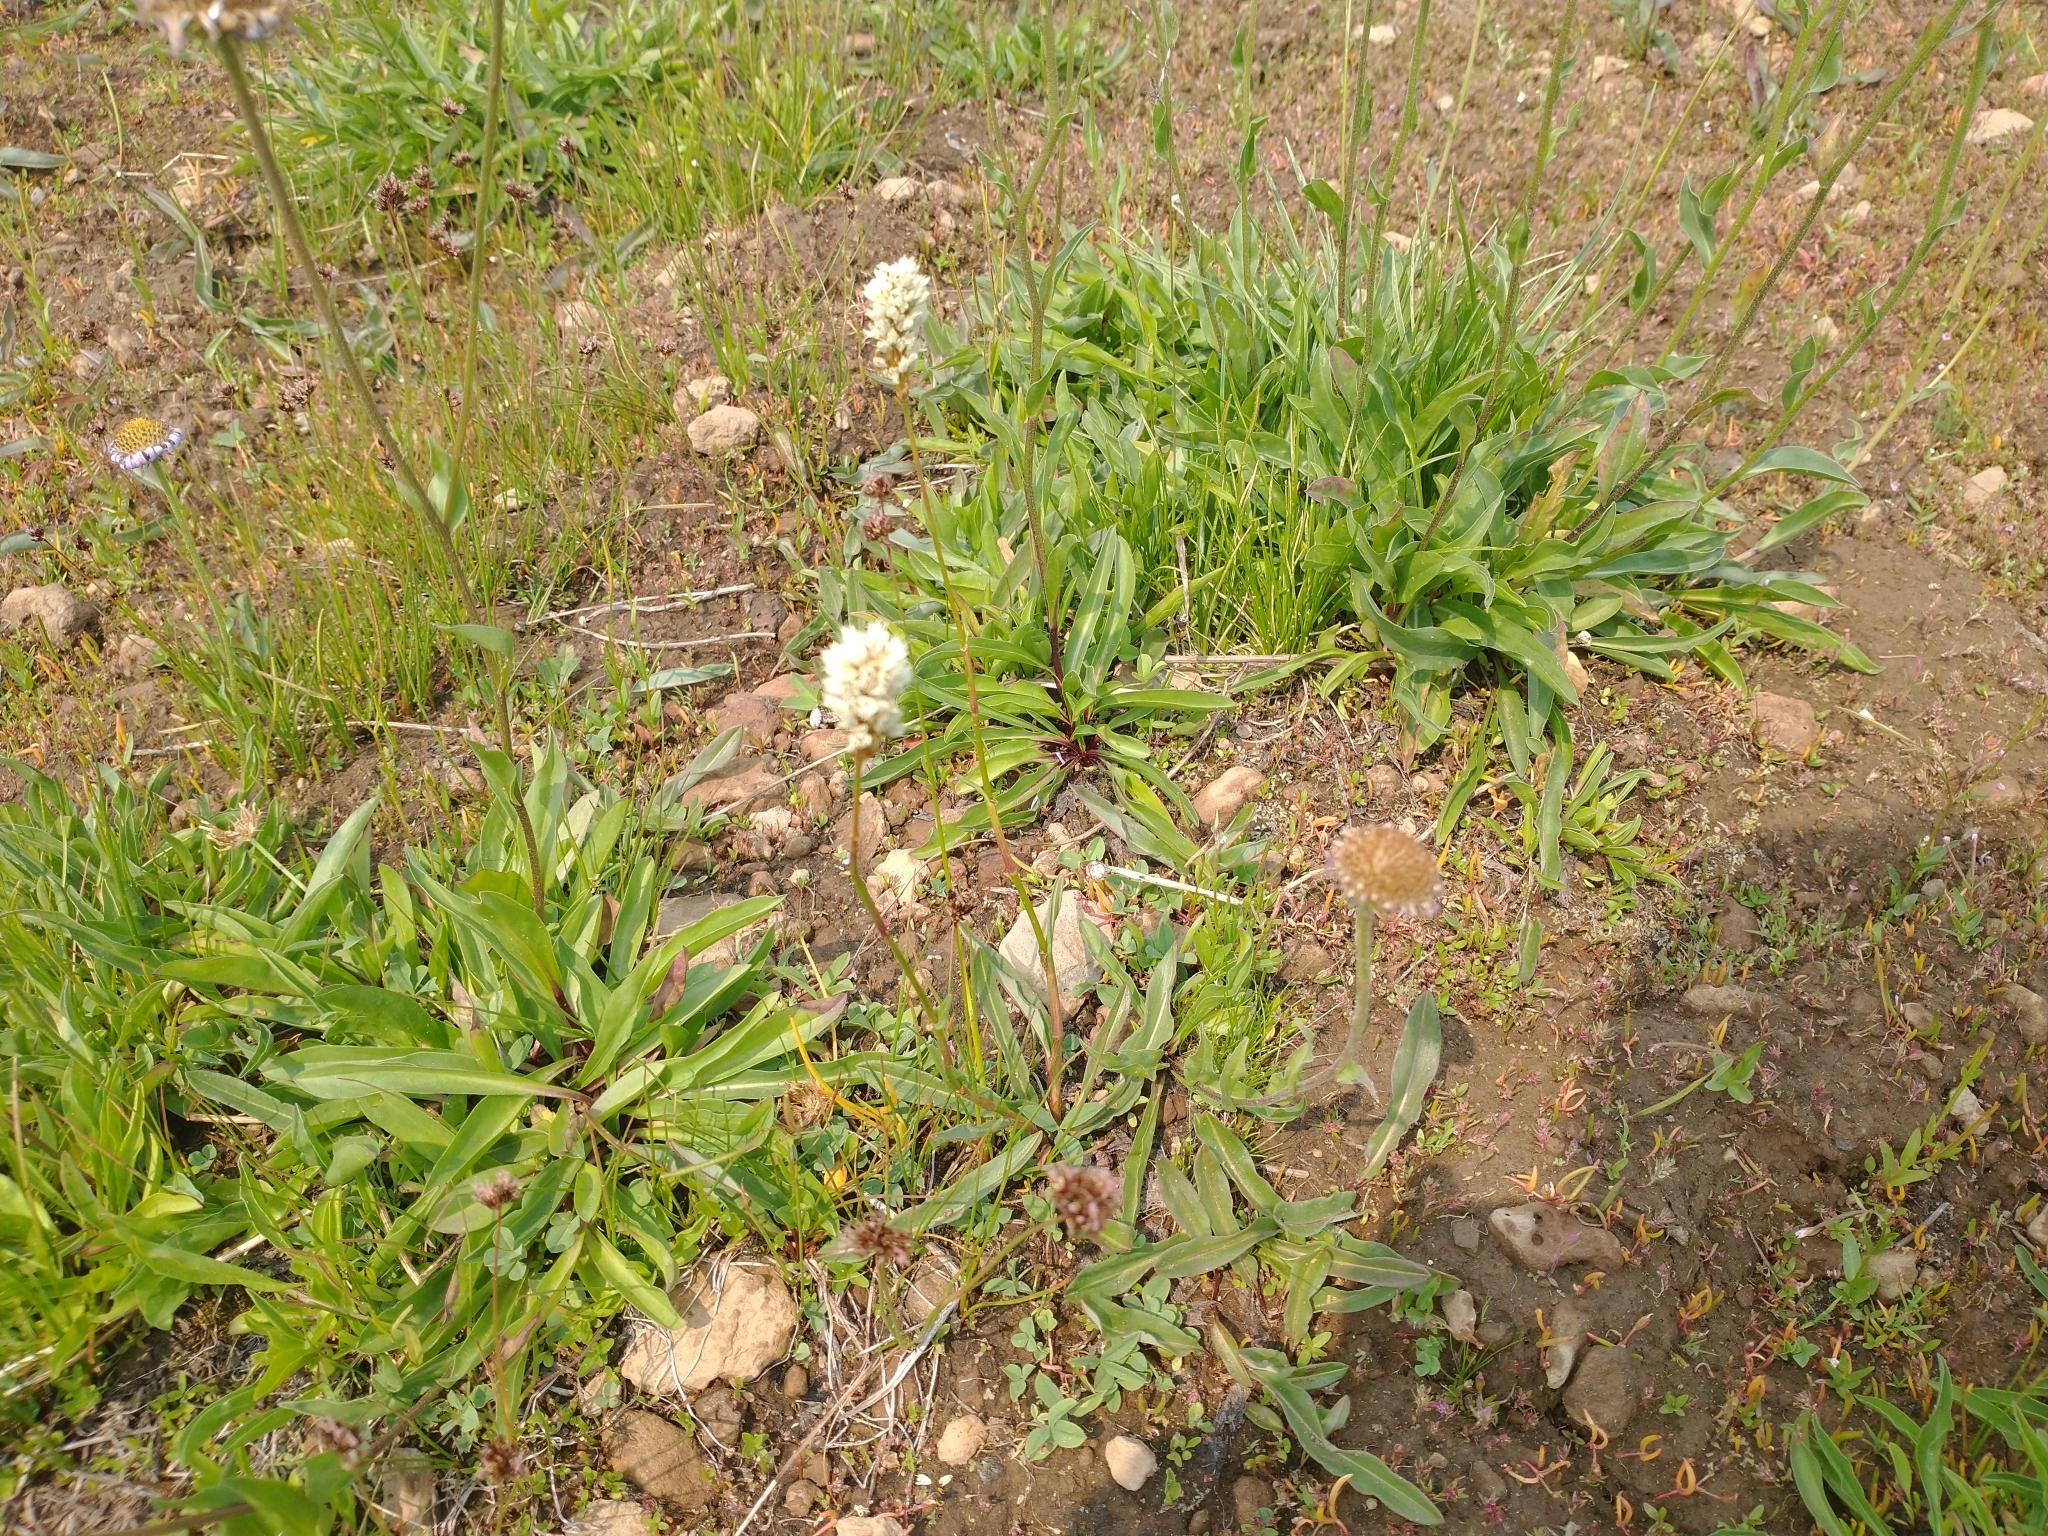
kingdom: Plantae
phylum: Tracheophyta
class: Magnoliopsida
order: Caryophyllales
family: Polygonaceae
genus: Bistorta
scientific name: Bistorta bistortoides
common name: American bistort
